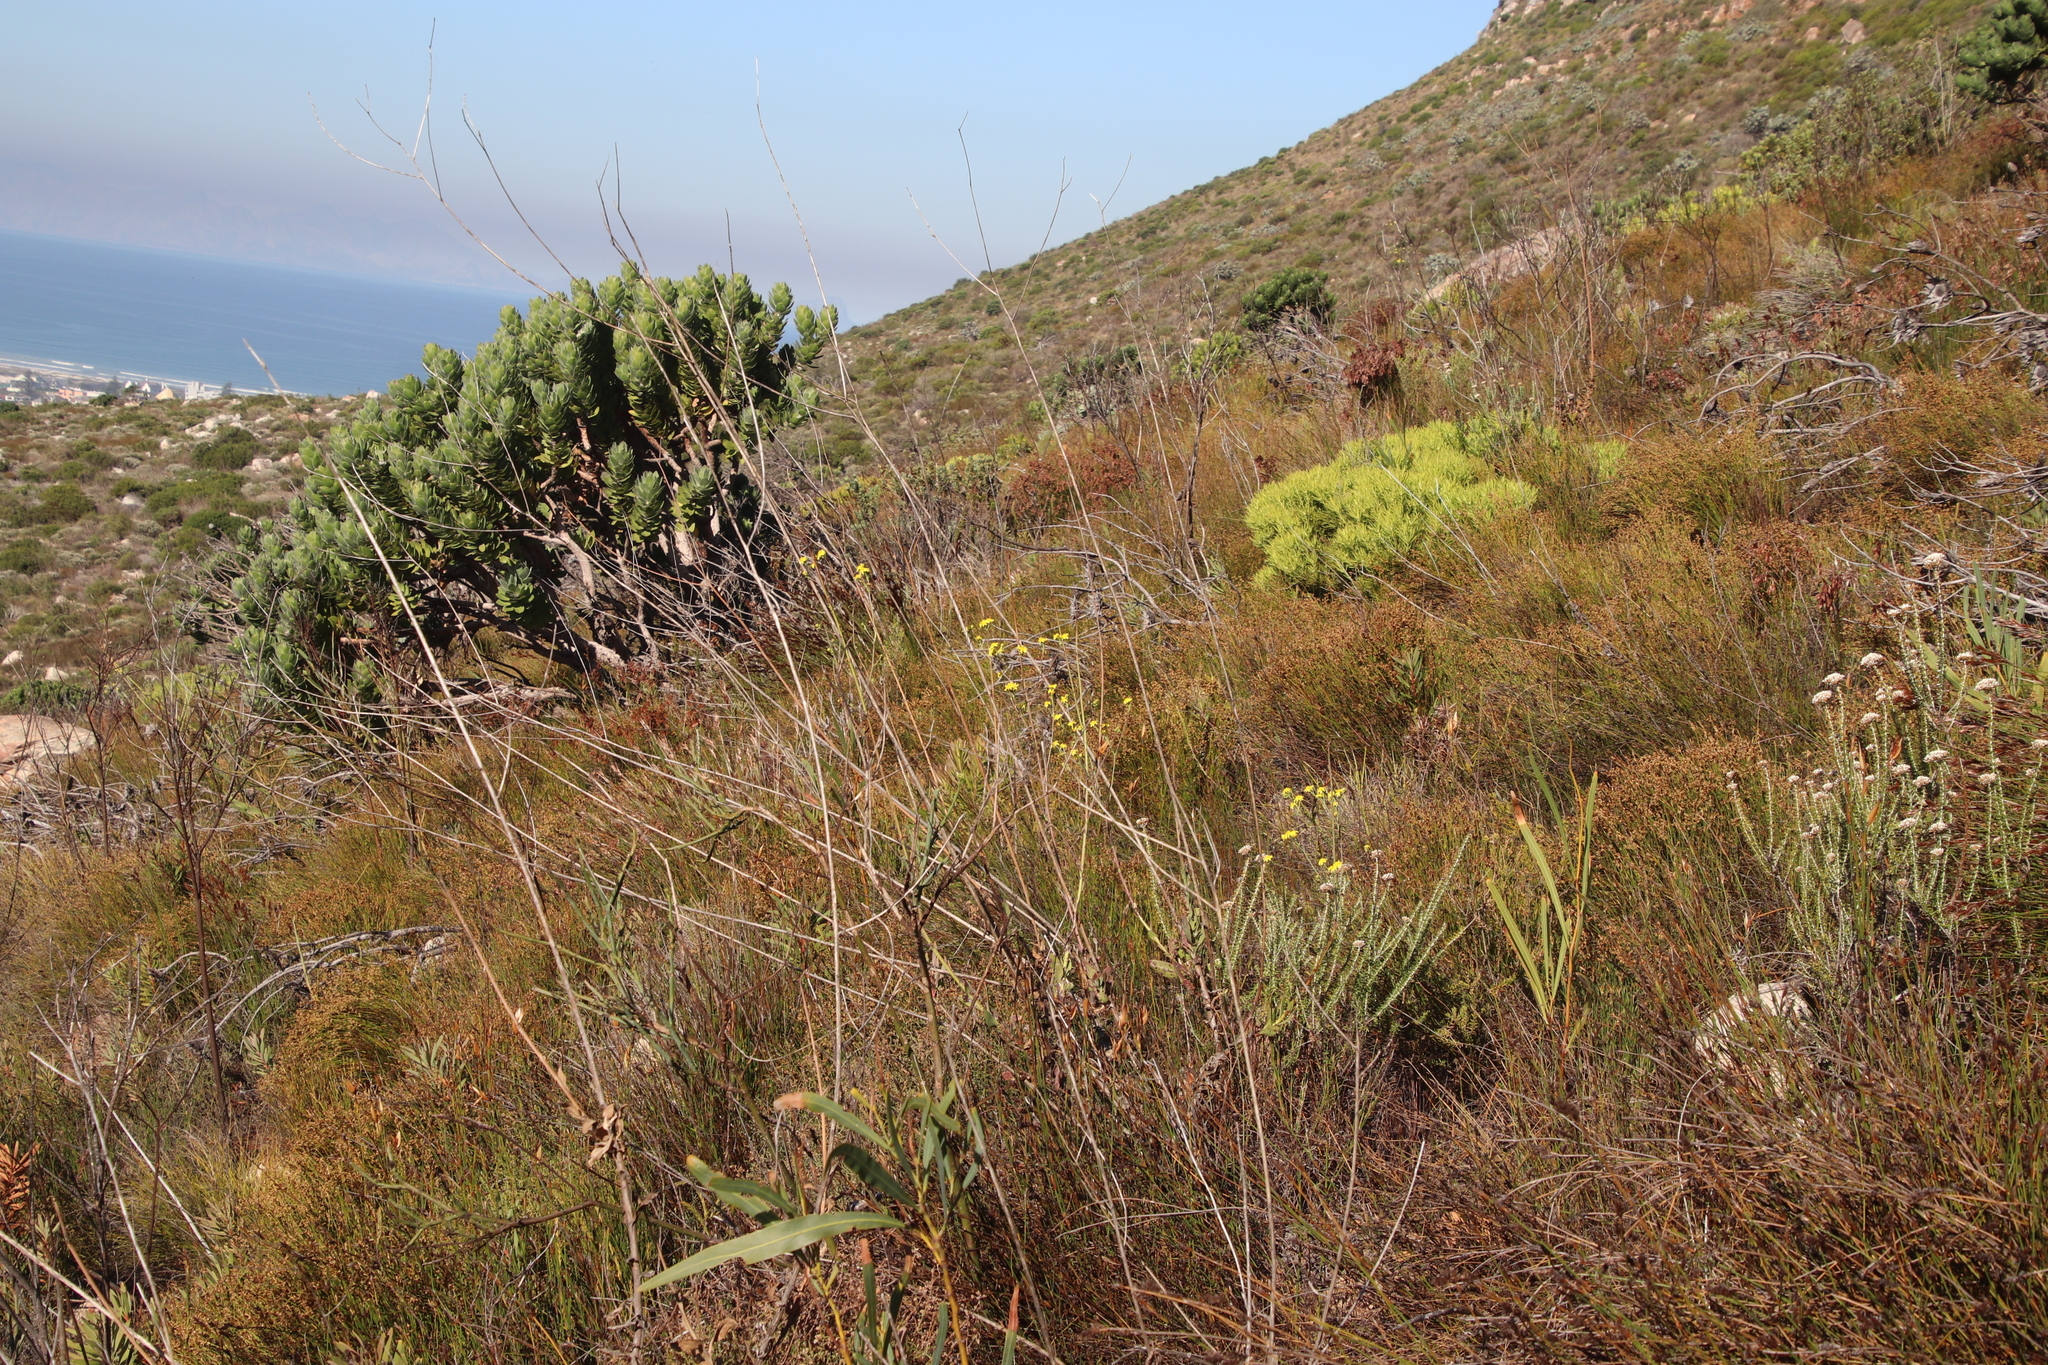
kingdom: Plantae
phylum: Tracheophyta
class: Magnoliopsida
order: Asterales
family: Asteraceae
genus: Othonna
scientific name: Othonna quinquedentata
